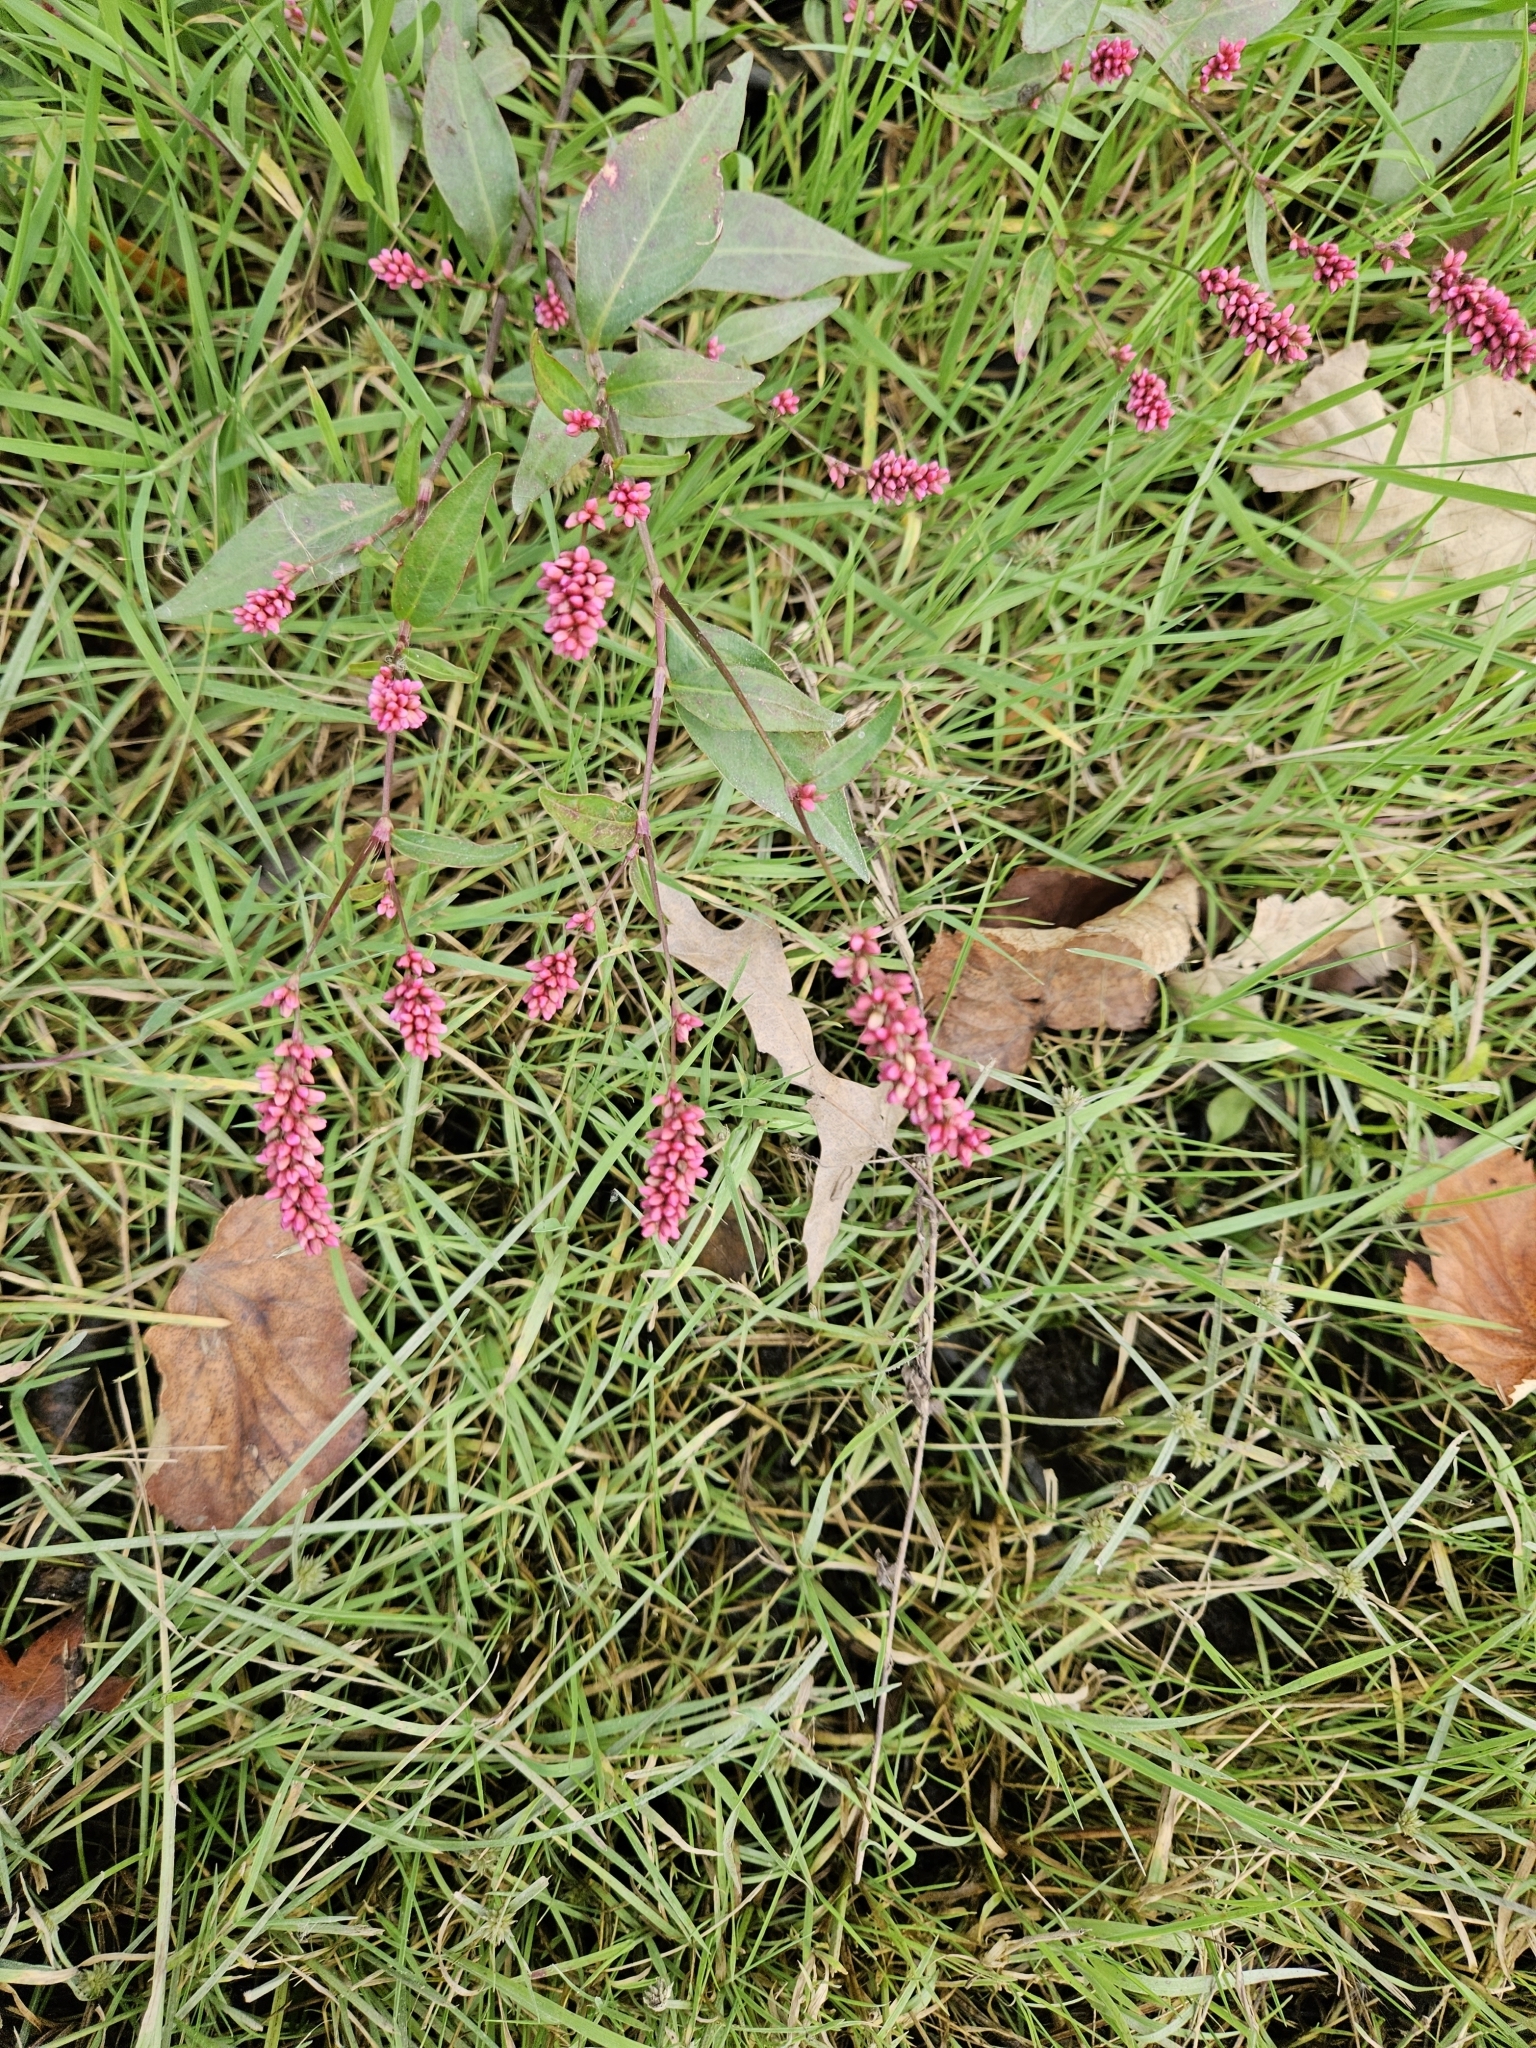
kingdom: Plantae
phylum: Tracheophyta
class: Magnoliopsida
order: Caryophyllales
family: Polygonaceae
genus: Persicaria
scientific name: Persicaria longiseta
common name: Bristly lady's-thumb
